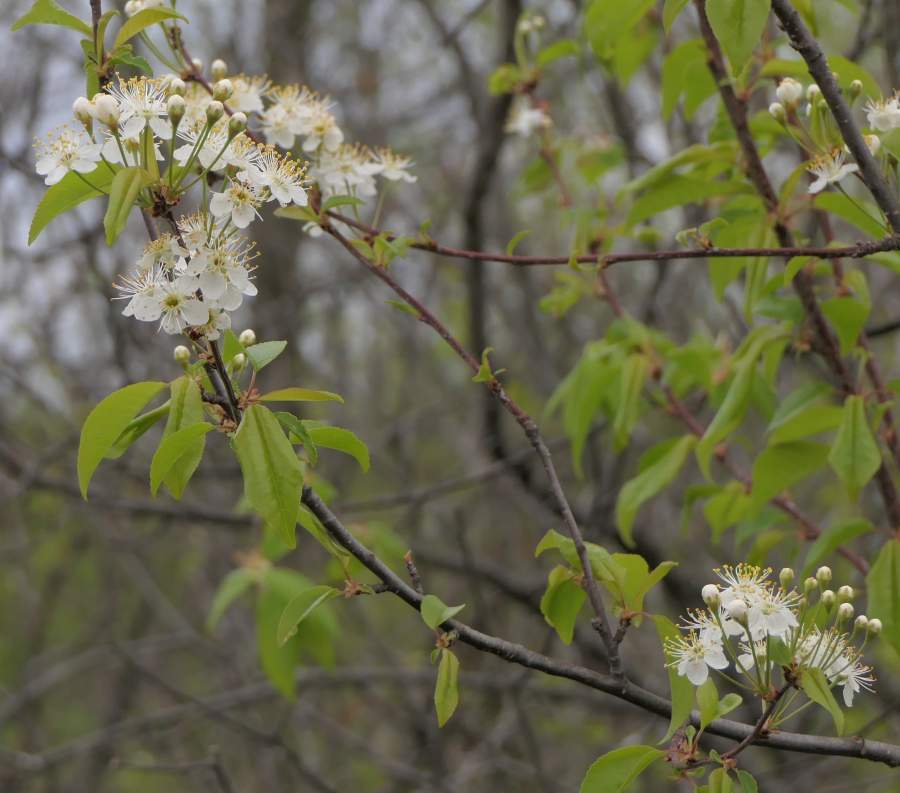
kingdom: Plantae
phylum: Tracheophyta
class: Magnoliopsida
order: Rosales
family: Rosaceae
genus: Prunus
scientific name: Prunus pensylvanica
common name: Pin cherry
